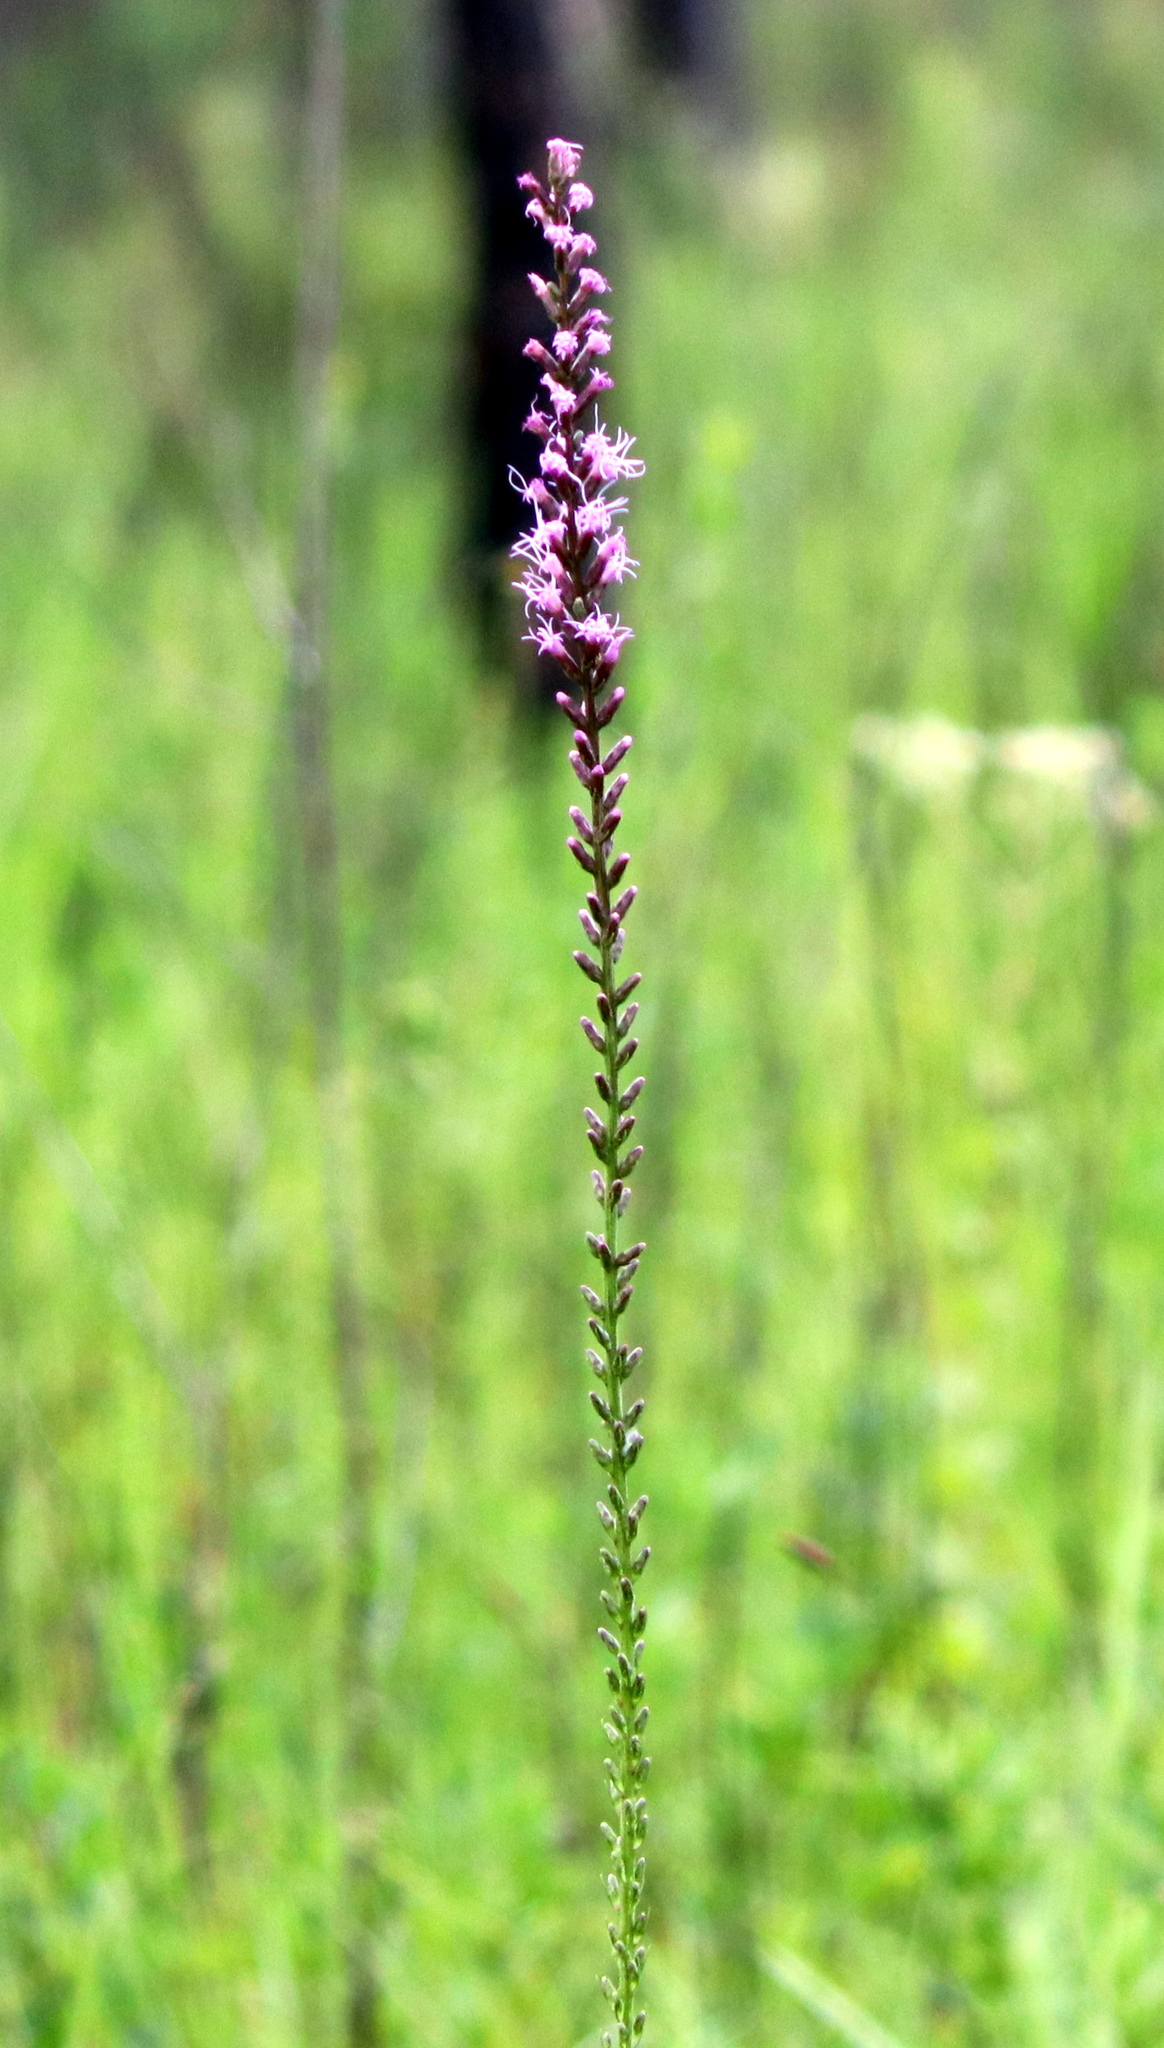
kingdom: Plantae
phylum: Tracheophyta
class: Magnoliopsida
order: Asterales
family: Asteraceae
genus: Liatris
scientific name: Liatris spicata
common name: Florist gayfeather
